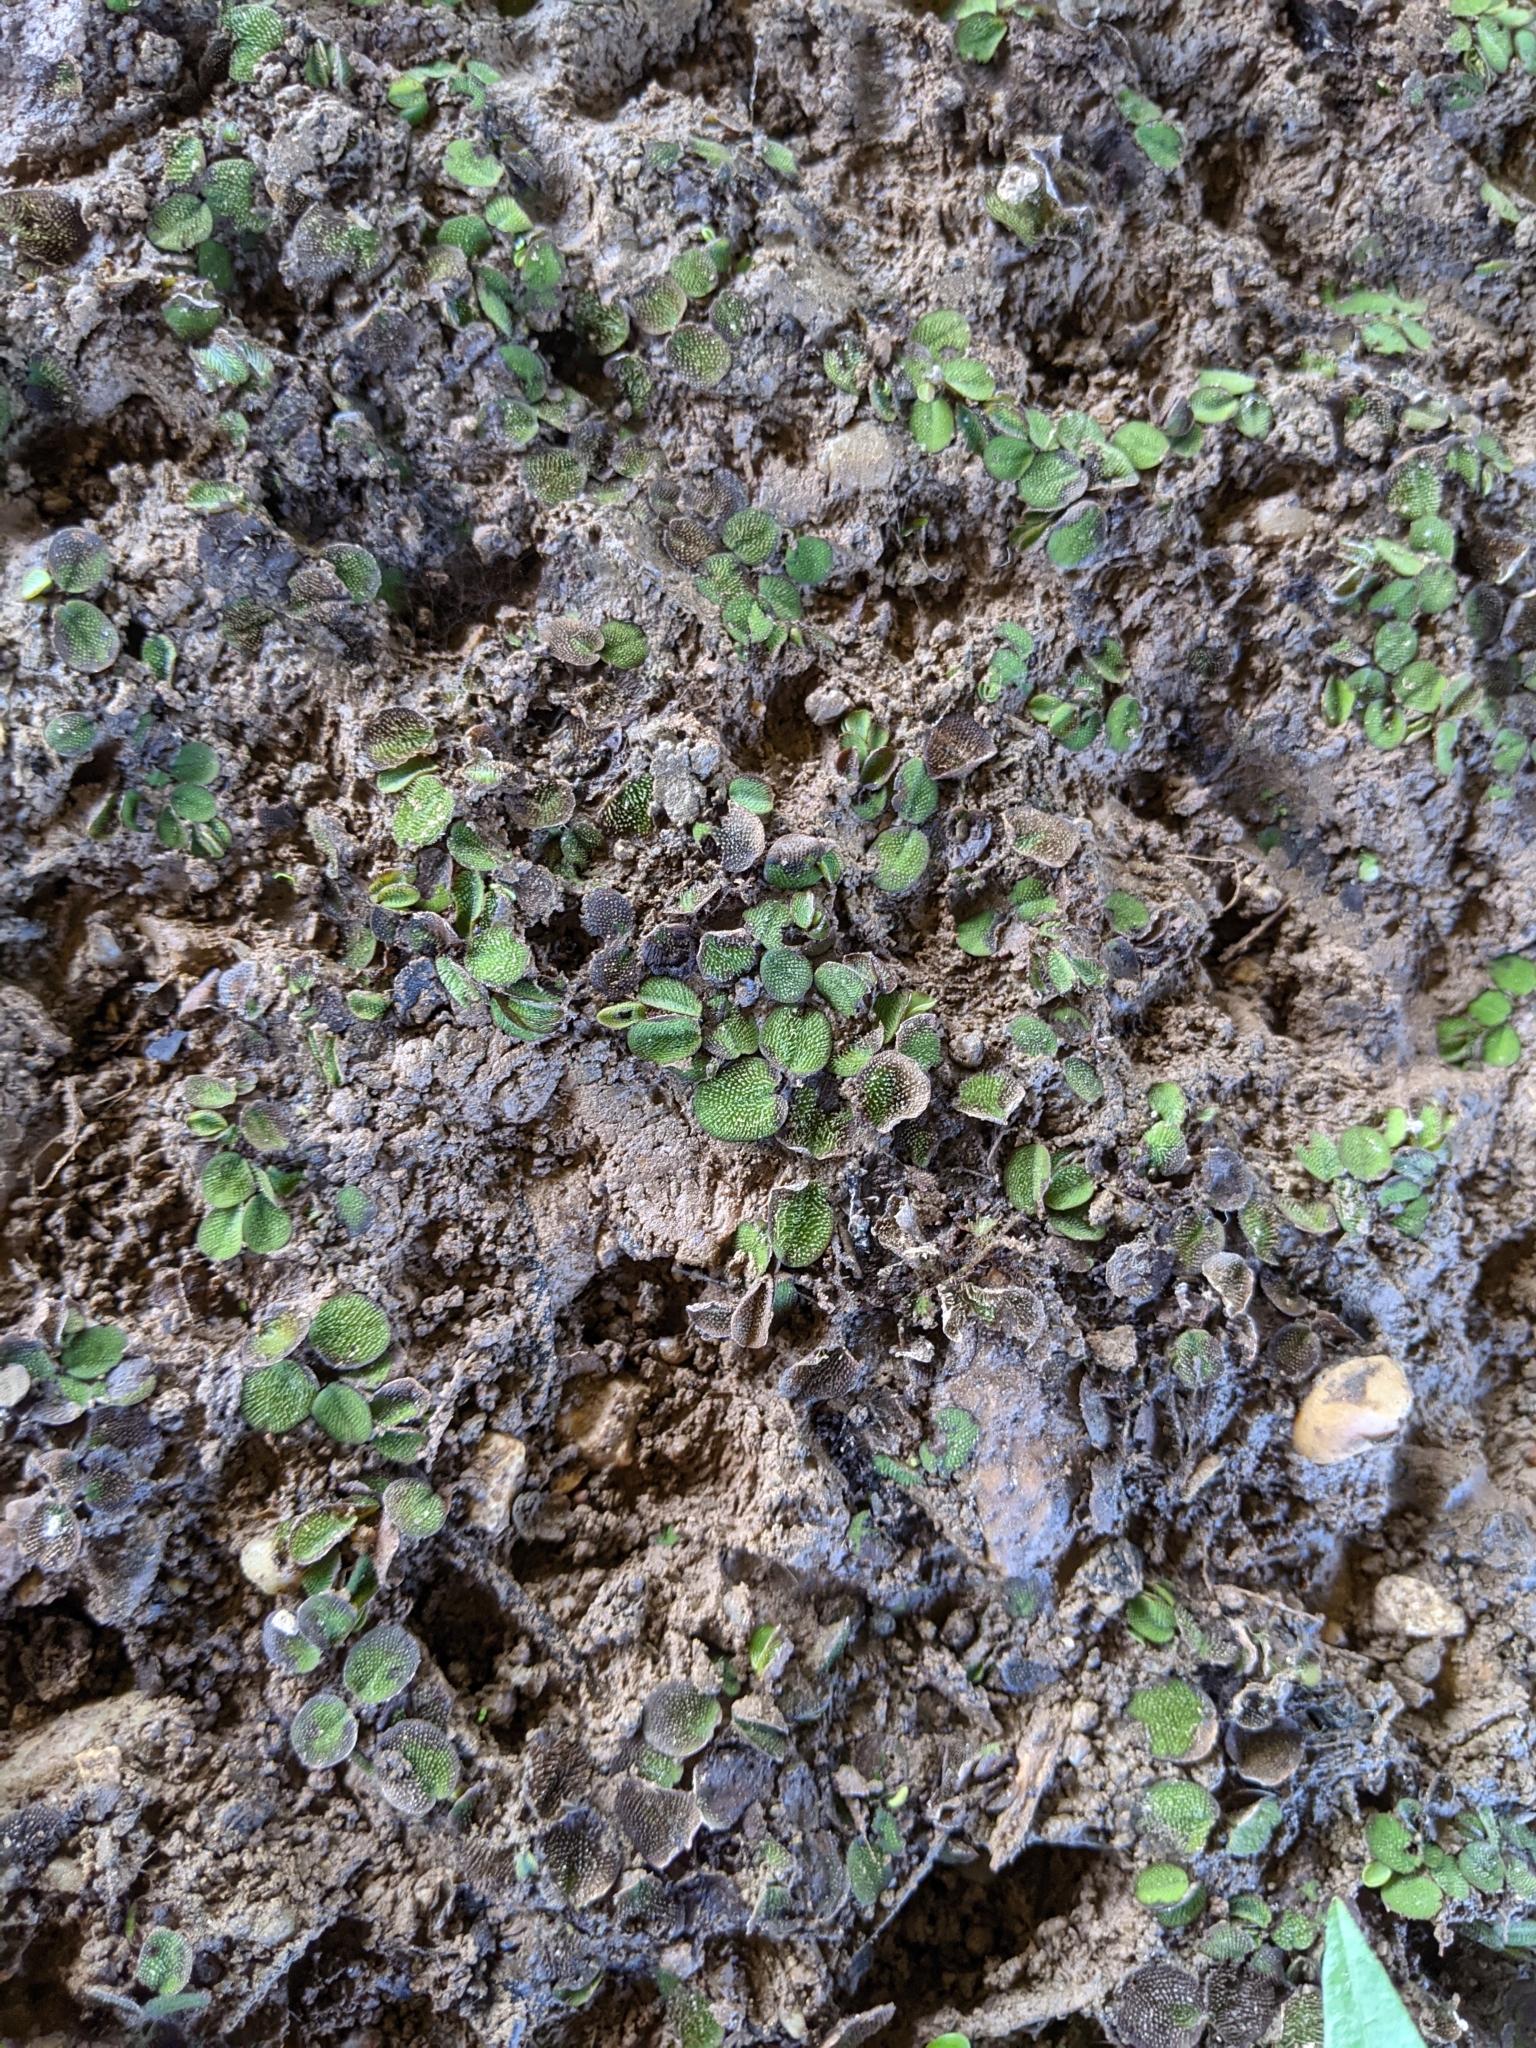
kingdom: Plantae
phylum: Tracheophyta
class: Polypodiopsida
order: Salviniales
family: Salviniaceae
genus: Salvinia
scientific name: Salvinia minima
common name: Water spangles
